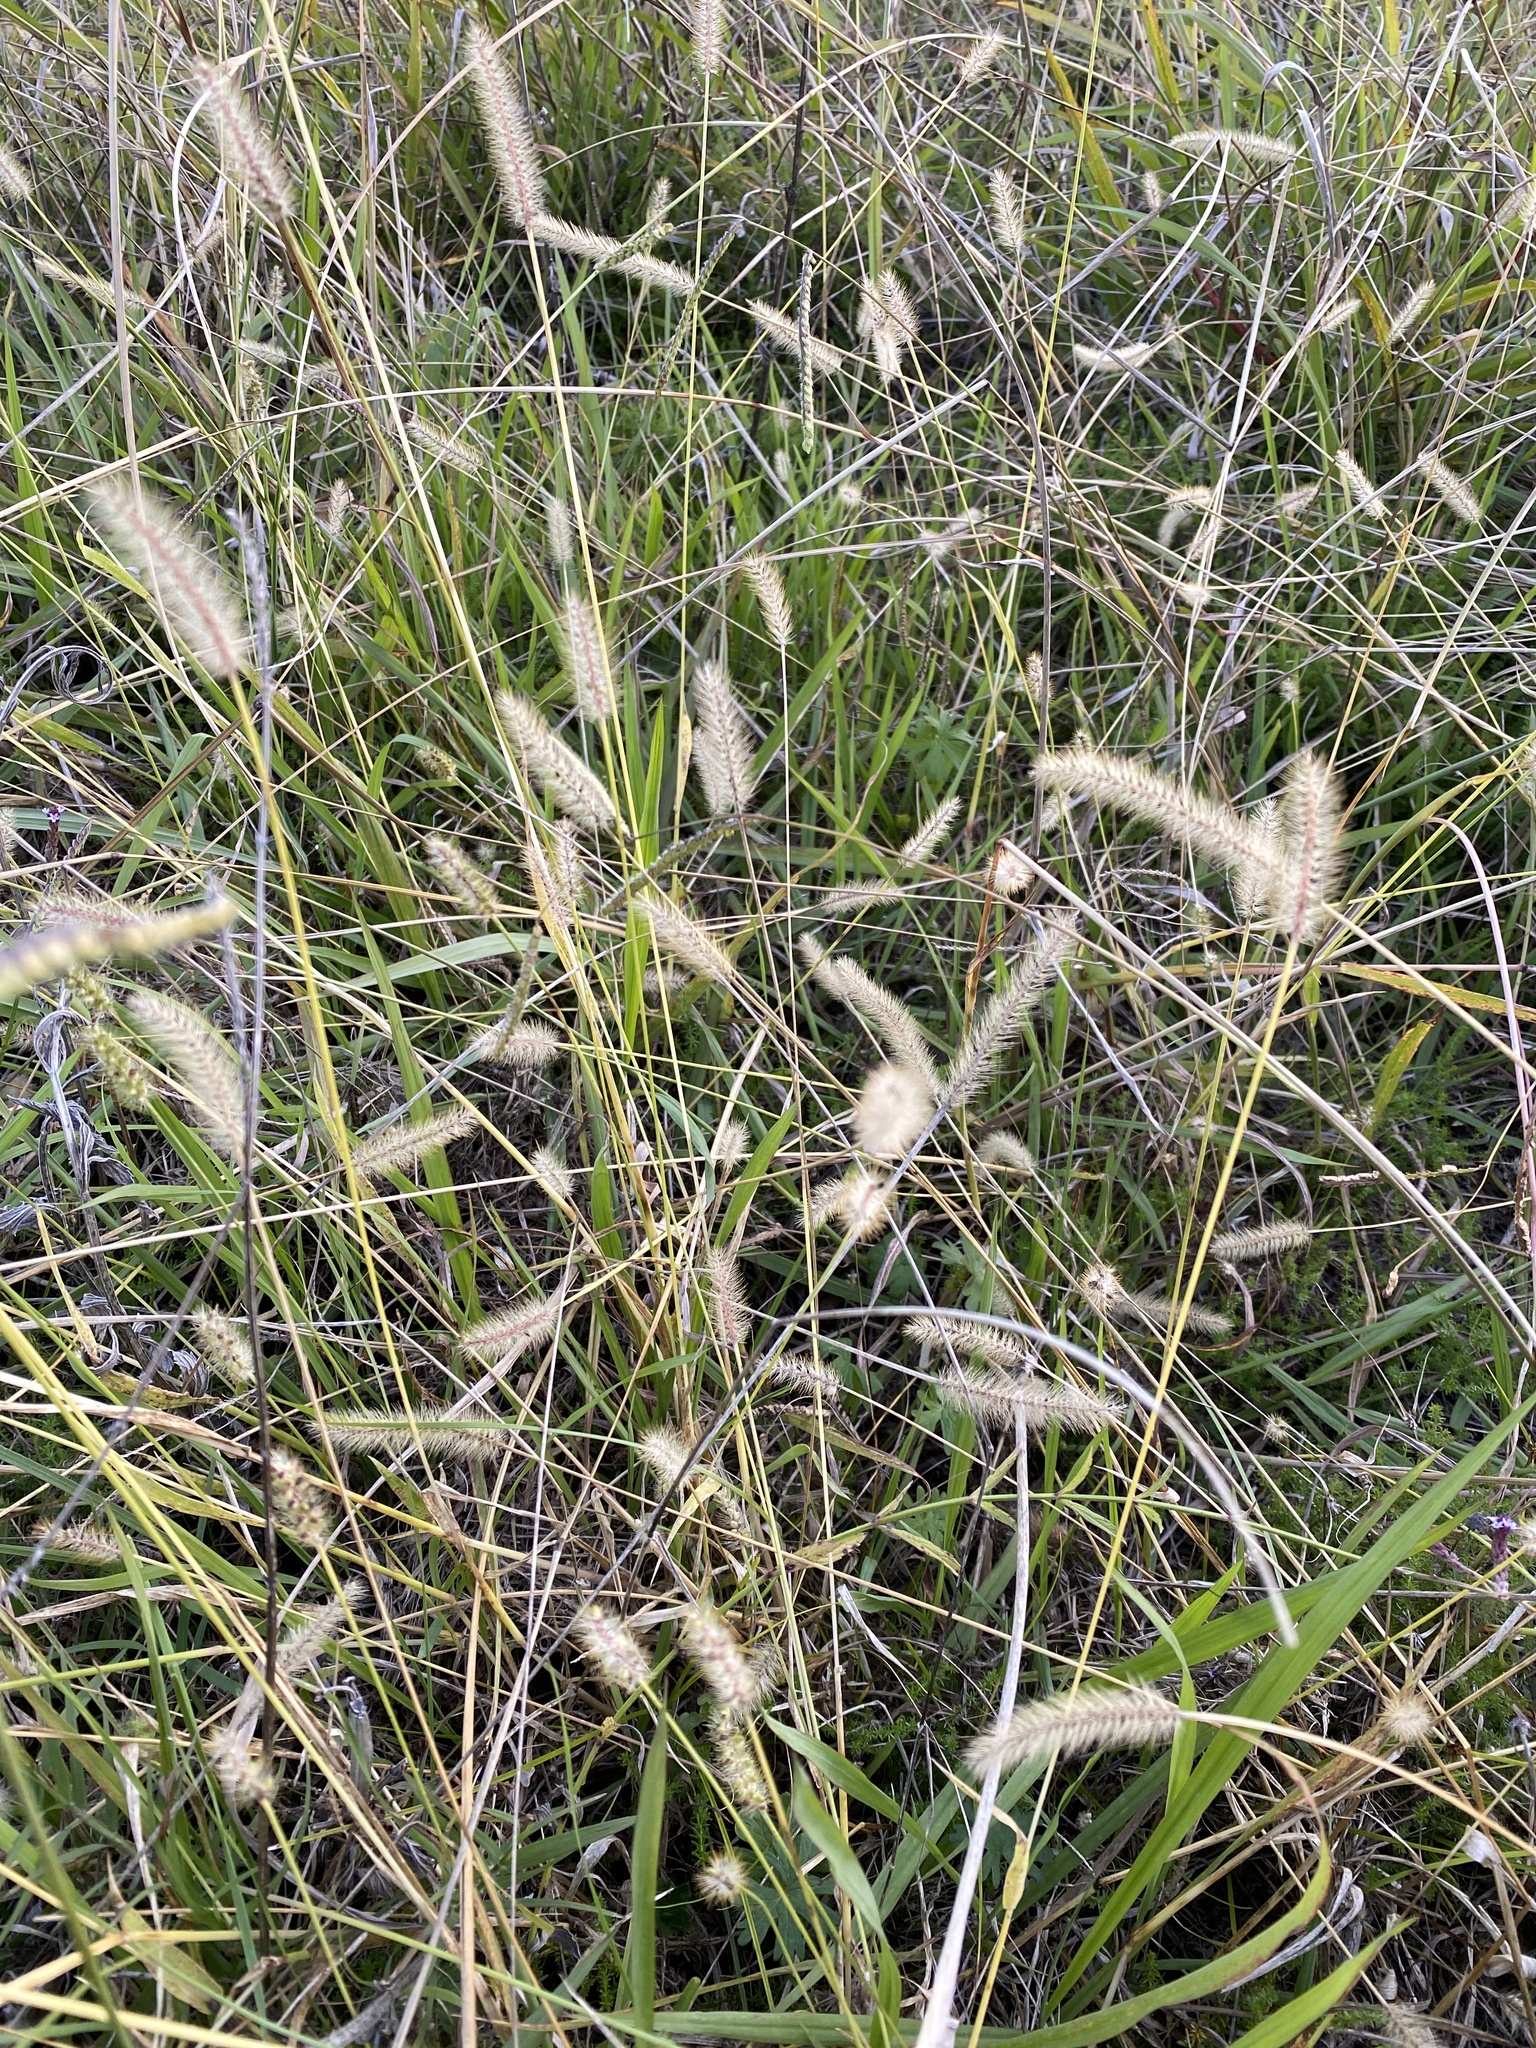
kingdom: Plantae
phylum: Tracheophyta
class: Liliopsida
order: Poales
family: Poaceae
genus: Setaria
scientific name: Setaria pumila
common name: Yellow bristle-grass
